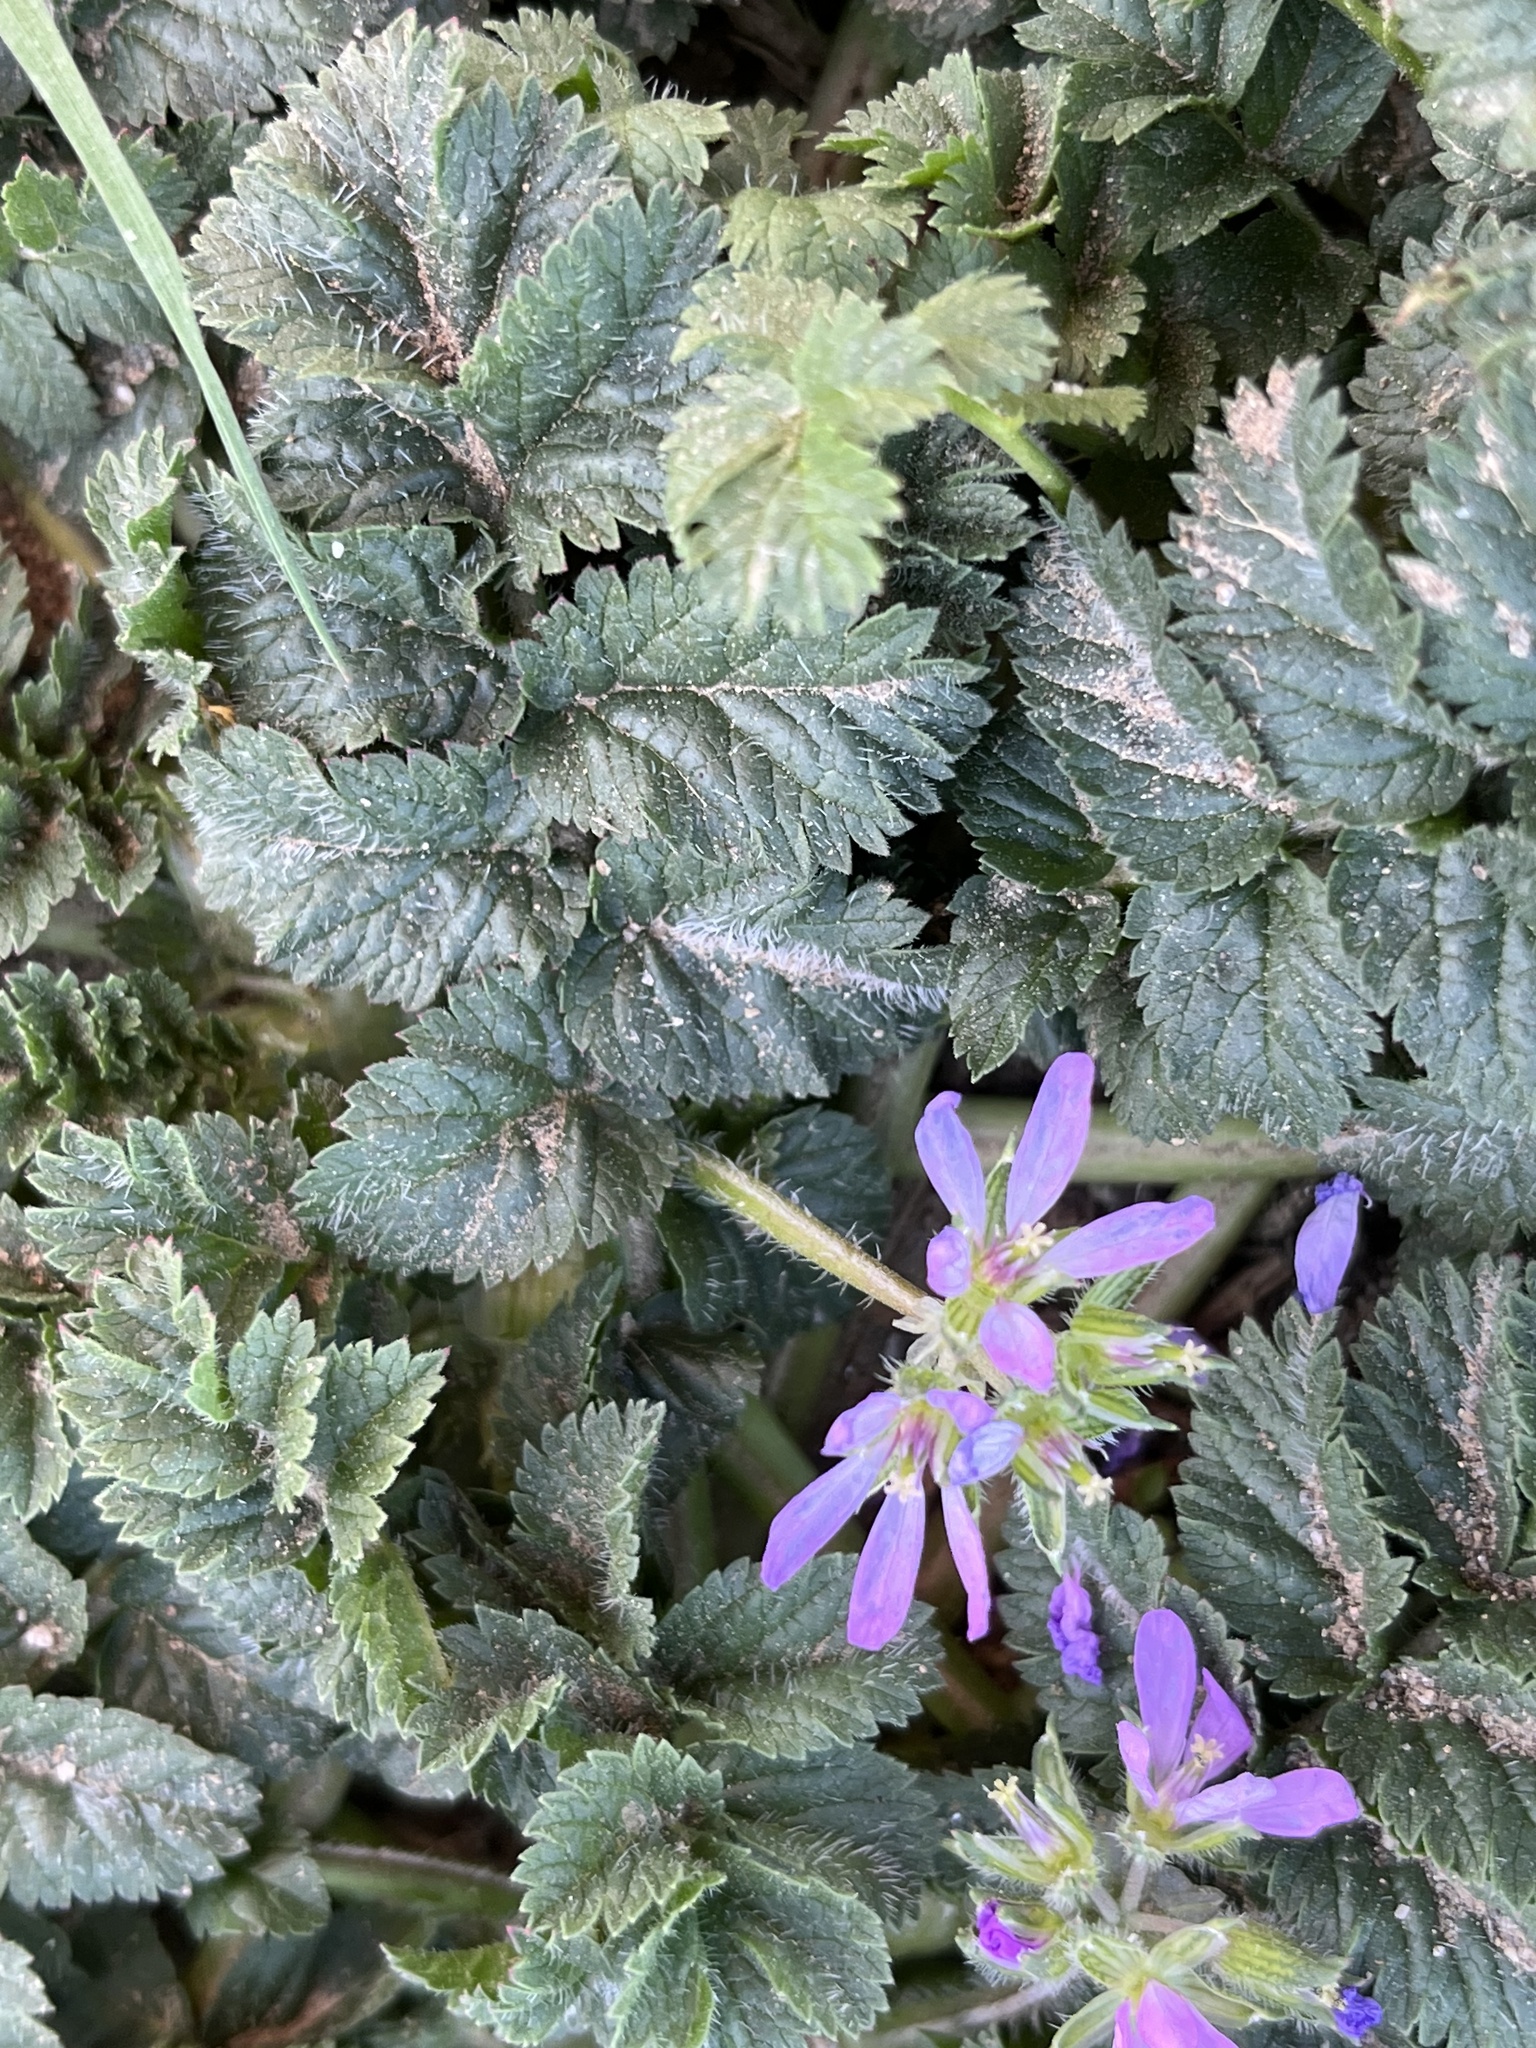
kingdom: Plantae
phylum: Tracheophyta
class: Magnoliopsida
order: Geraniales
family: Geraniaceae
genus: Erodium
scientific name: Erodium cicutarium
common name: Common stork's-bill
